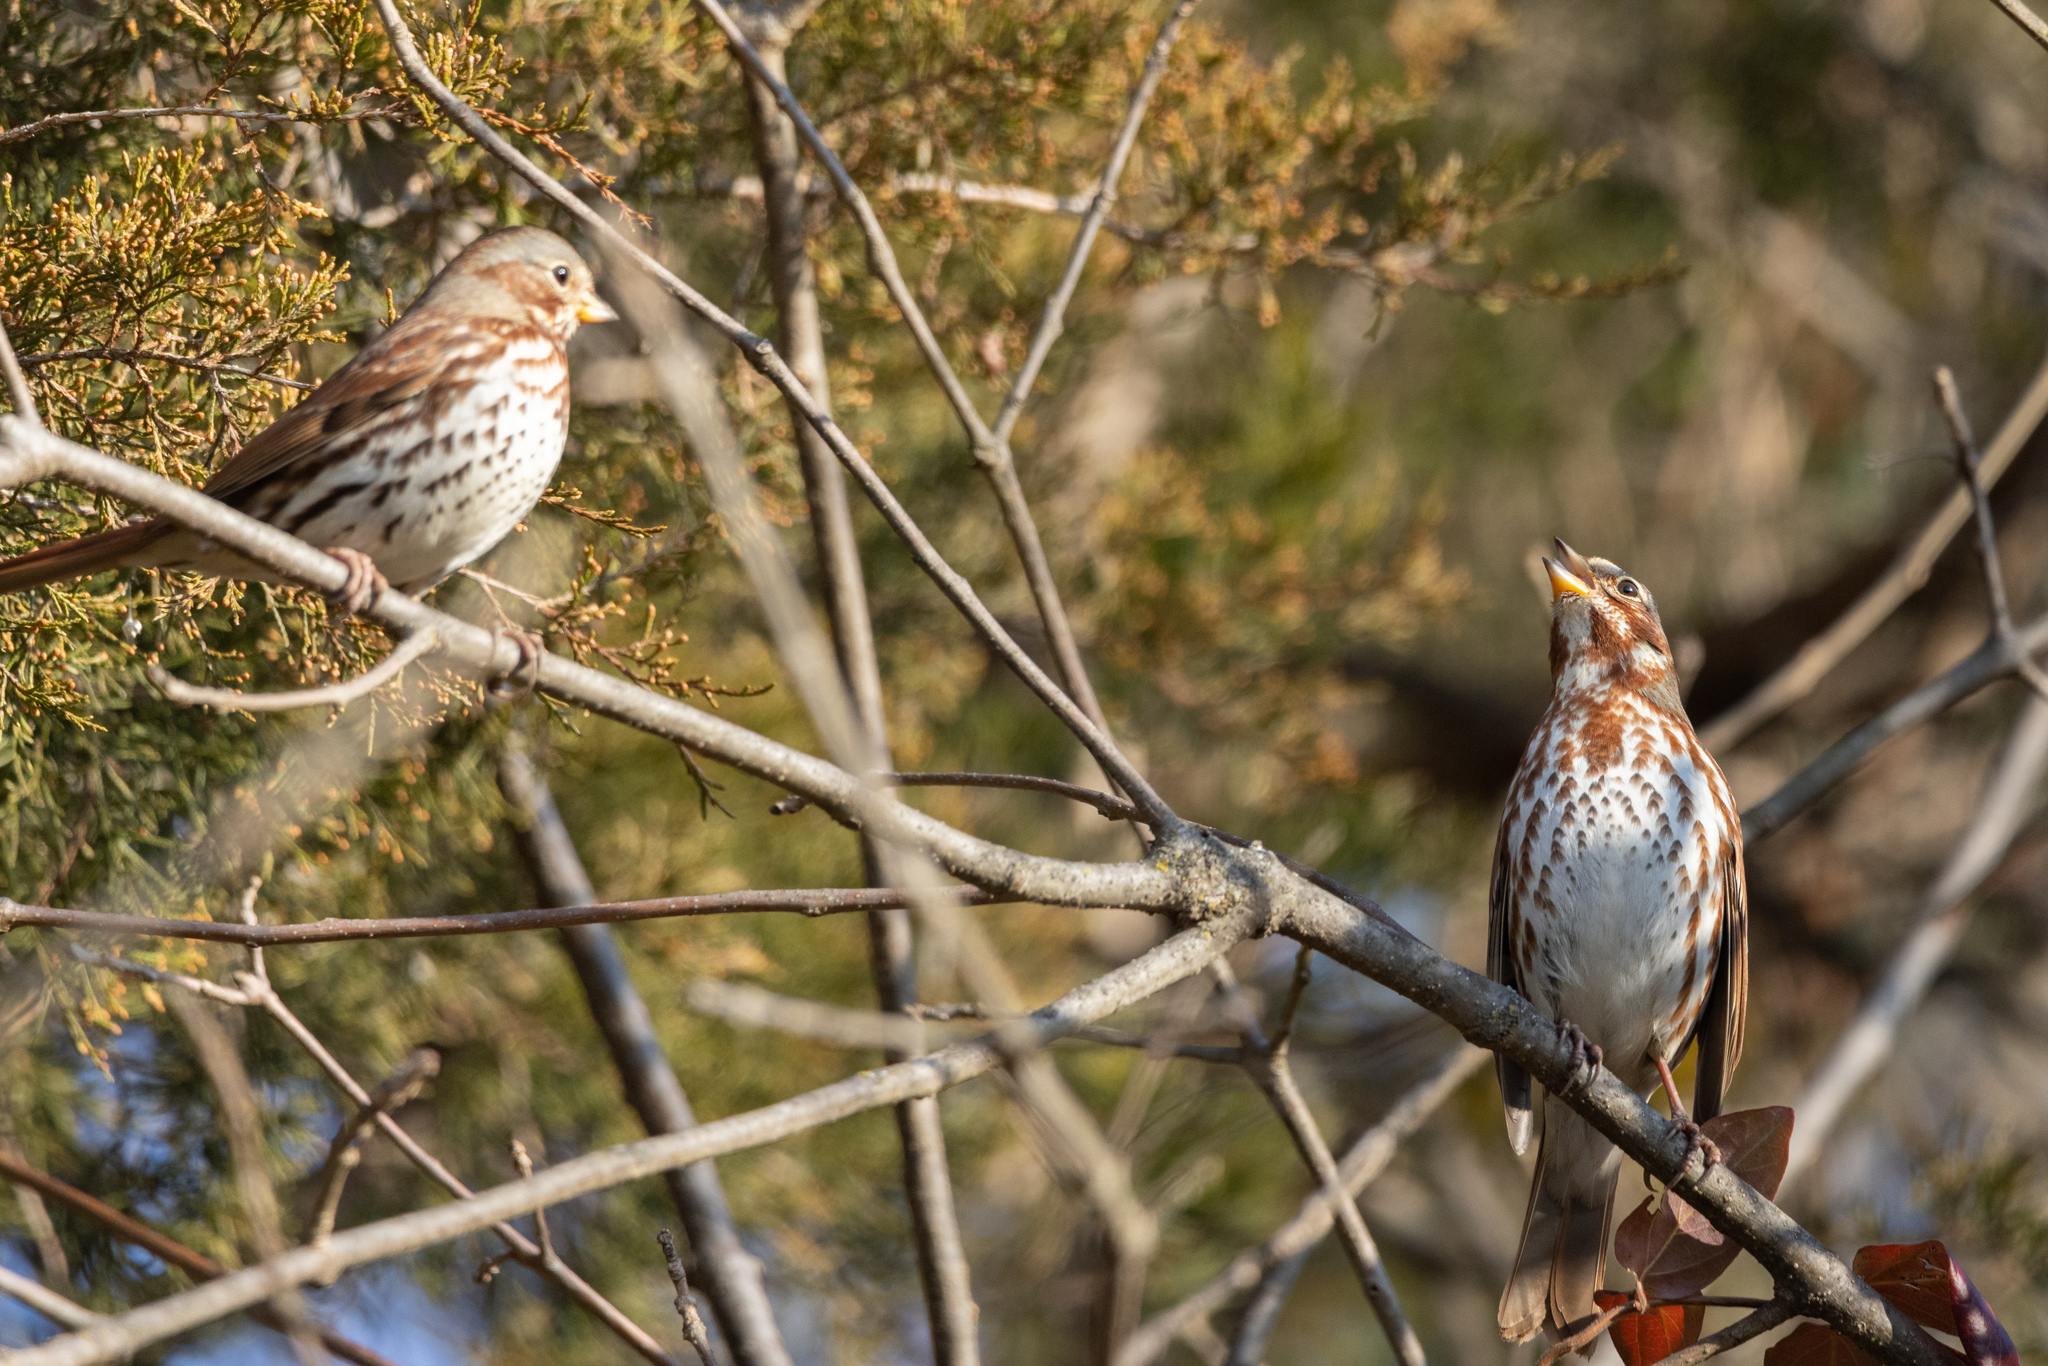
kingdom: Animalia
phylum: Chordata
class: Aves
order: Passeriformes
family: Passerellidae
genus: Passerella
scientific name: Passerella iliaca
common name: Fox sparrow
